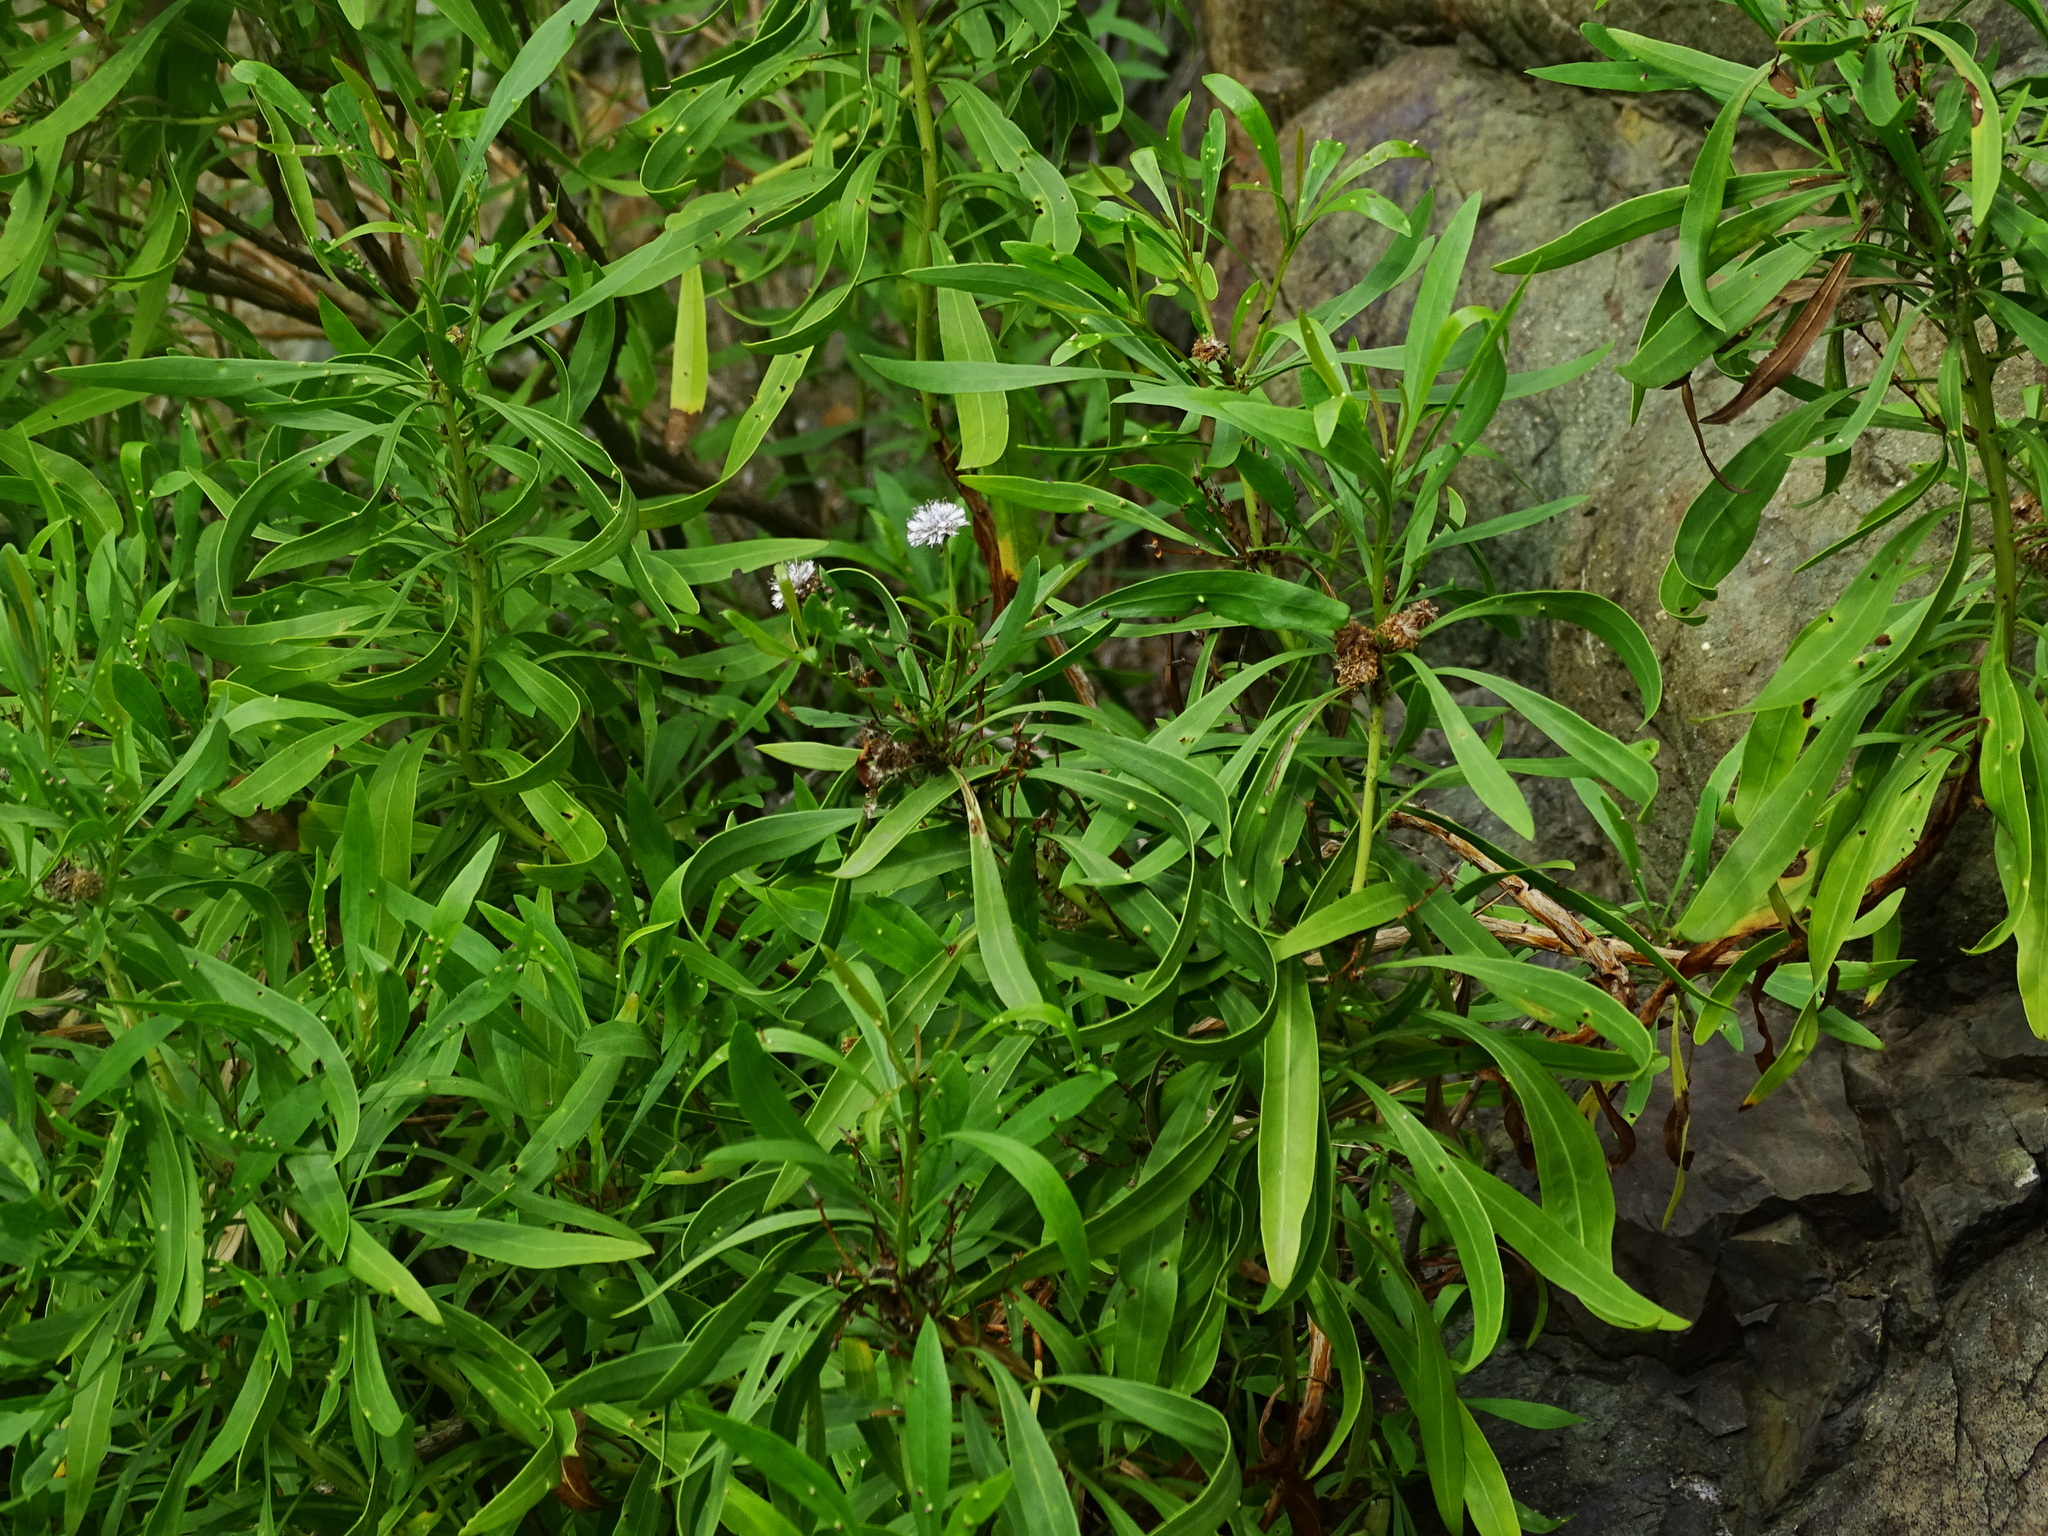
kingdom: Plantae
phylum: Tracheophyta
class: Magnoliopsida
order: Lamiales
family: Plantaginaceae
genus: Globularia
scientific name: Globularia salicina
